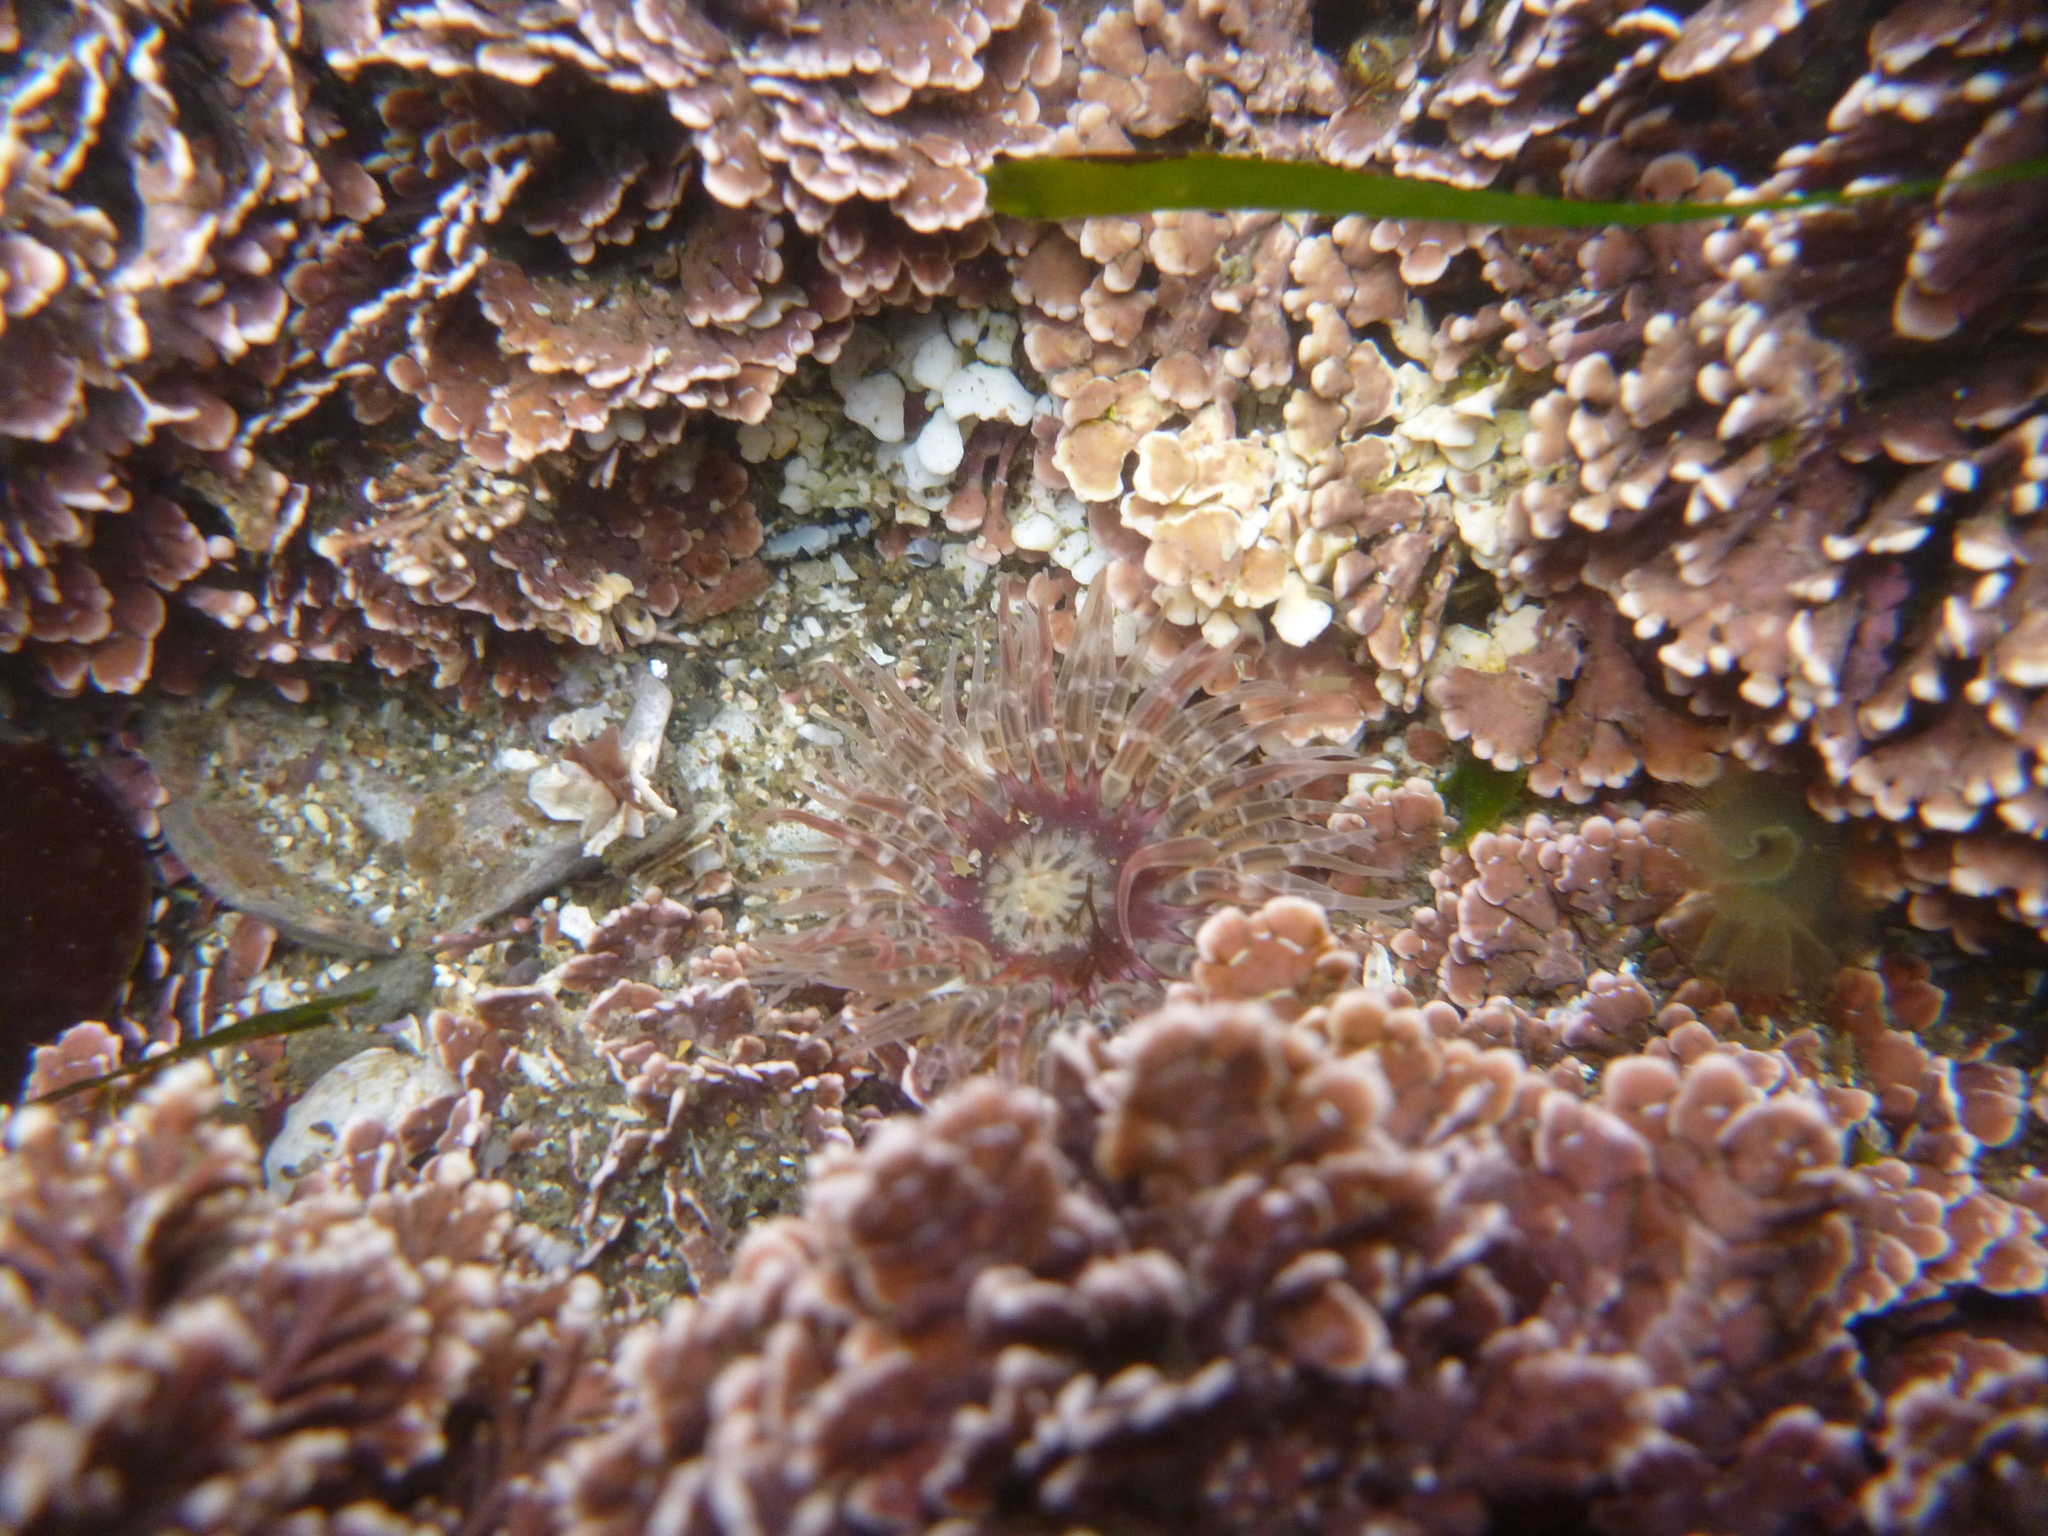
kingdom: Animalia
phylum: Cnidaria
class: Anthozoa
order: Actiniaria
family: Actiniidae
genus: Anthopleura
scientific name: Anthopleura artemisia
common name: Buried sea anemone
